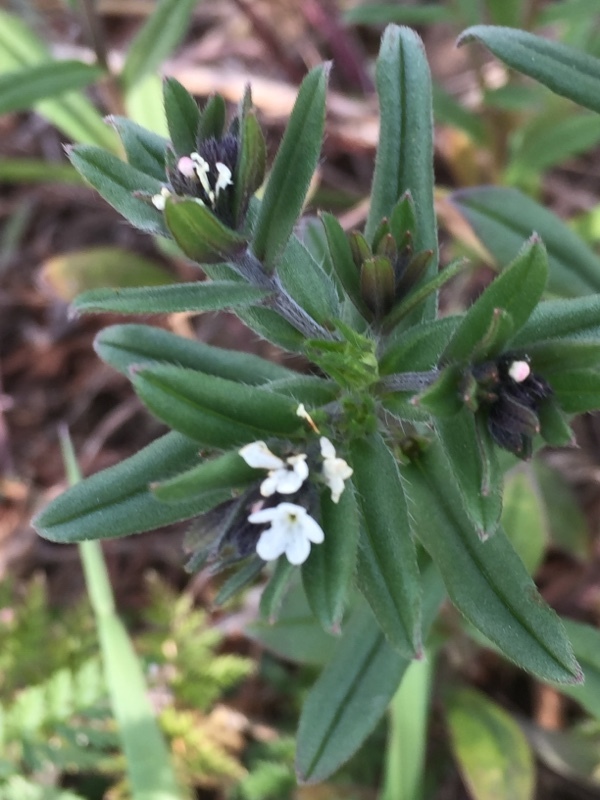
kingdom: Plantae
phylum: Tracheophyta
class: Magnoliopsida
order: Boraginales
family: Boraginaceae
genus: Buglossoides
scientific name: Buglossoides arvensis
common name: Corn gromwell
